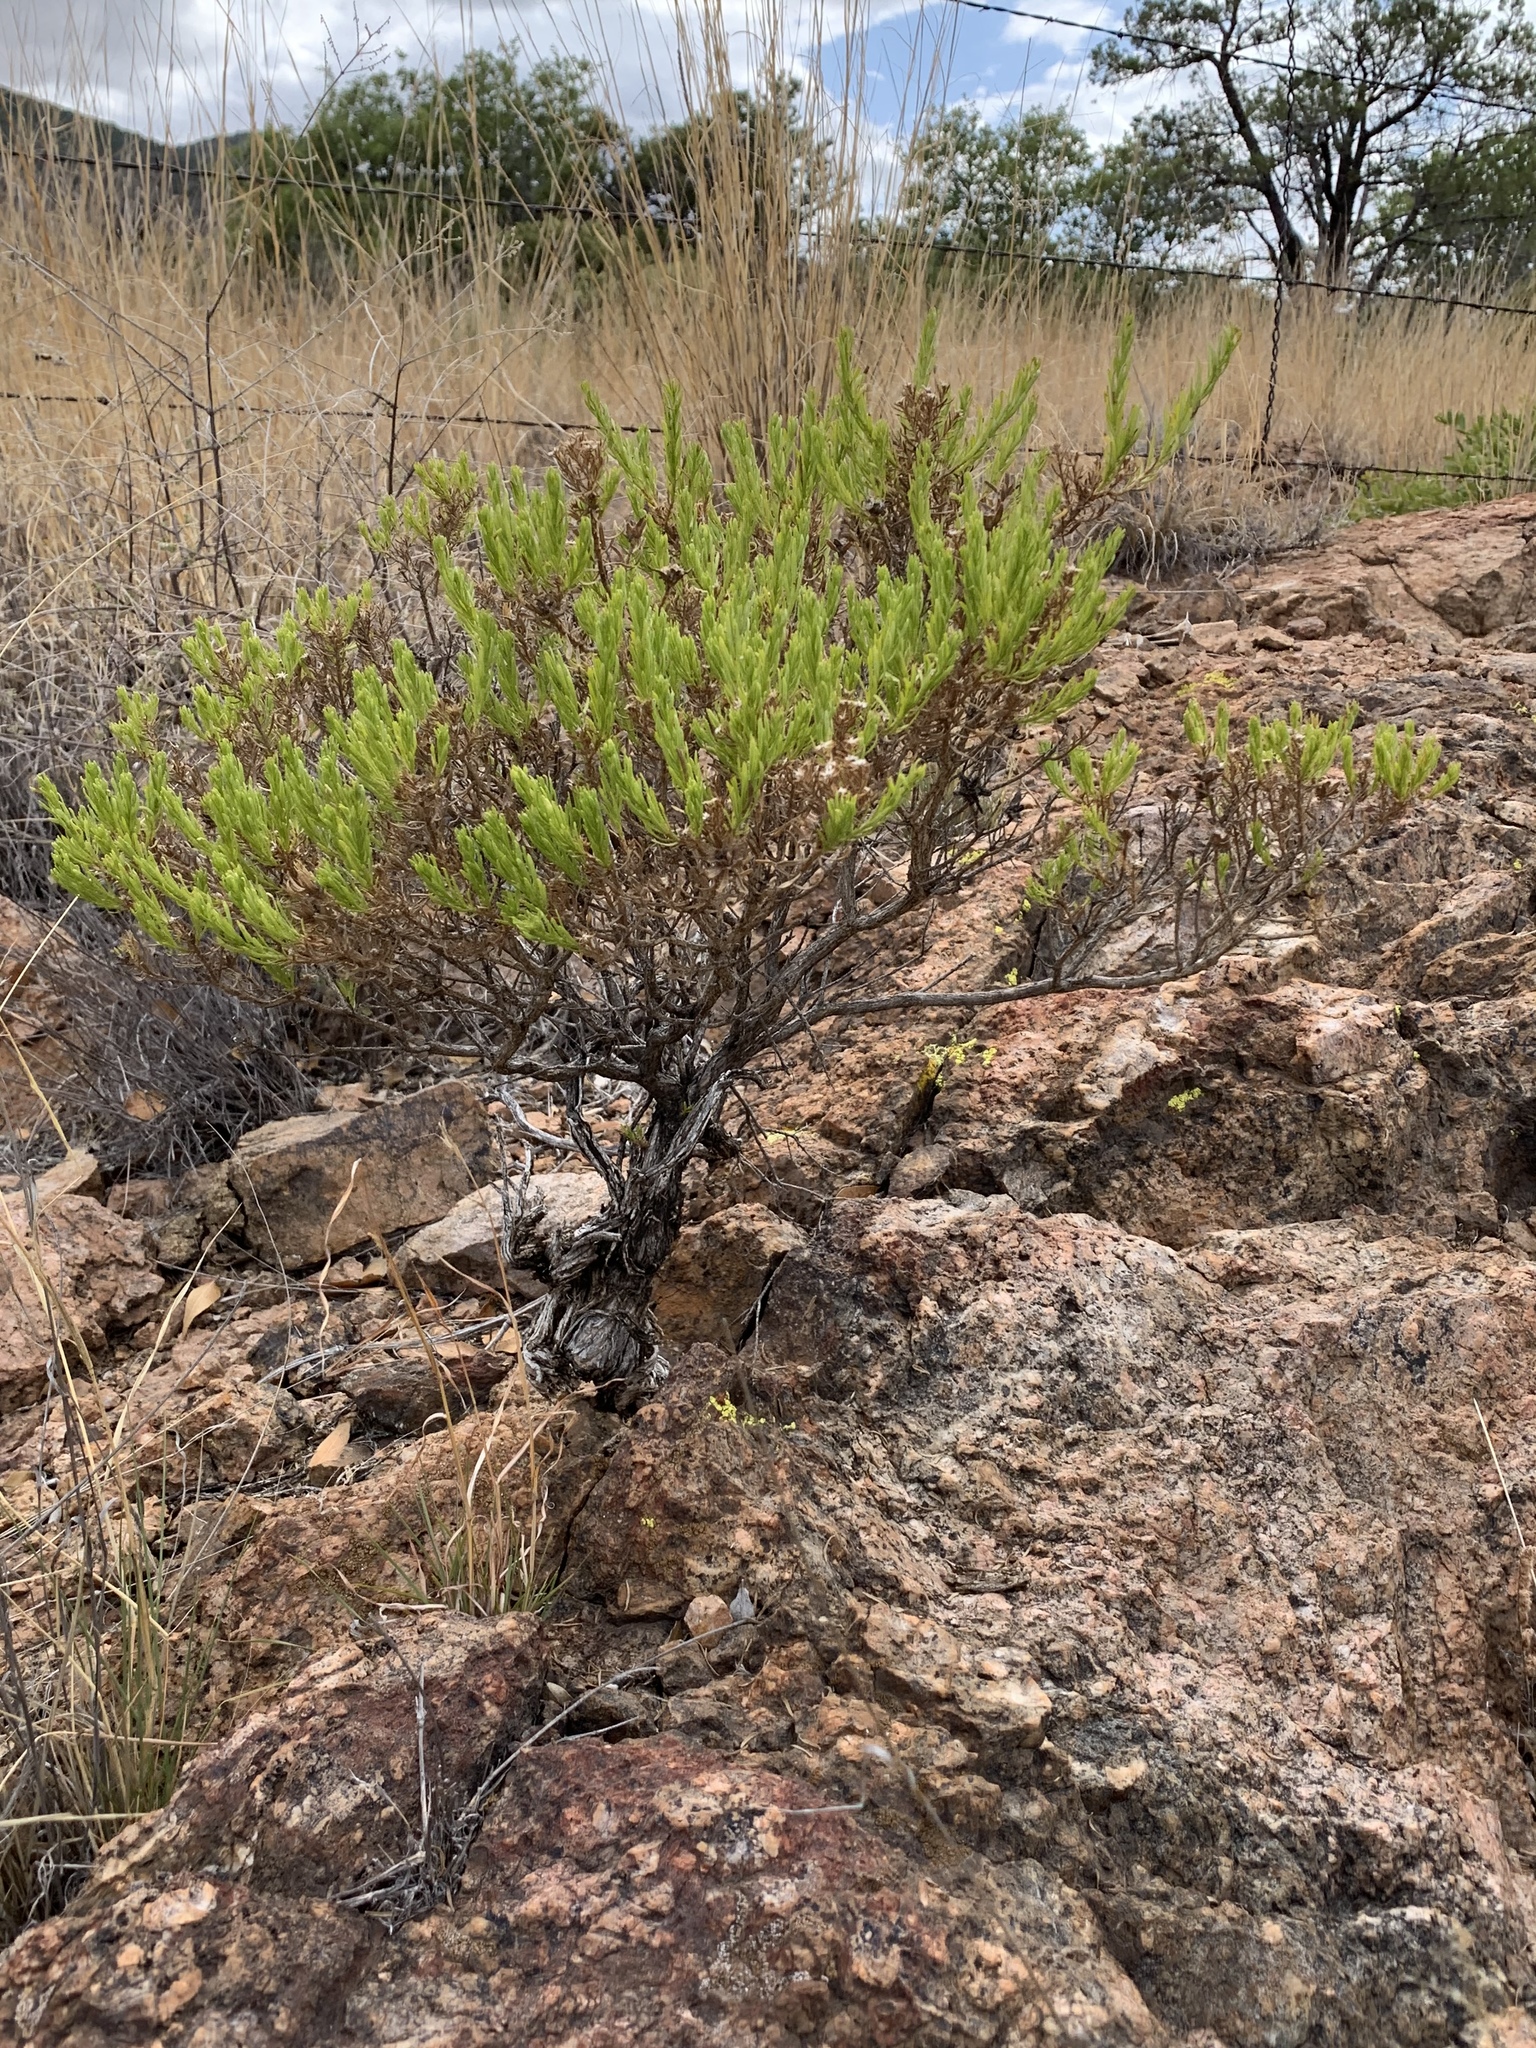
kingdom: Plantae
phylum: Tracheophyta
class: Magnoliopsida
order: Asterales
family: Asteraceae
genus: Ericameria
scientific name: Ericameria laricifolia
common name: Turpentine-bush
